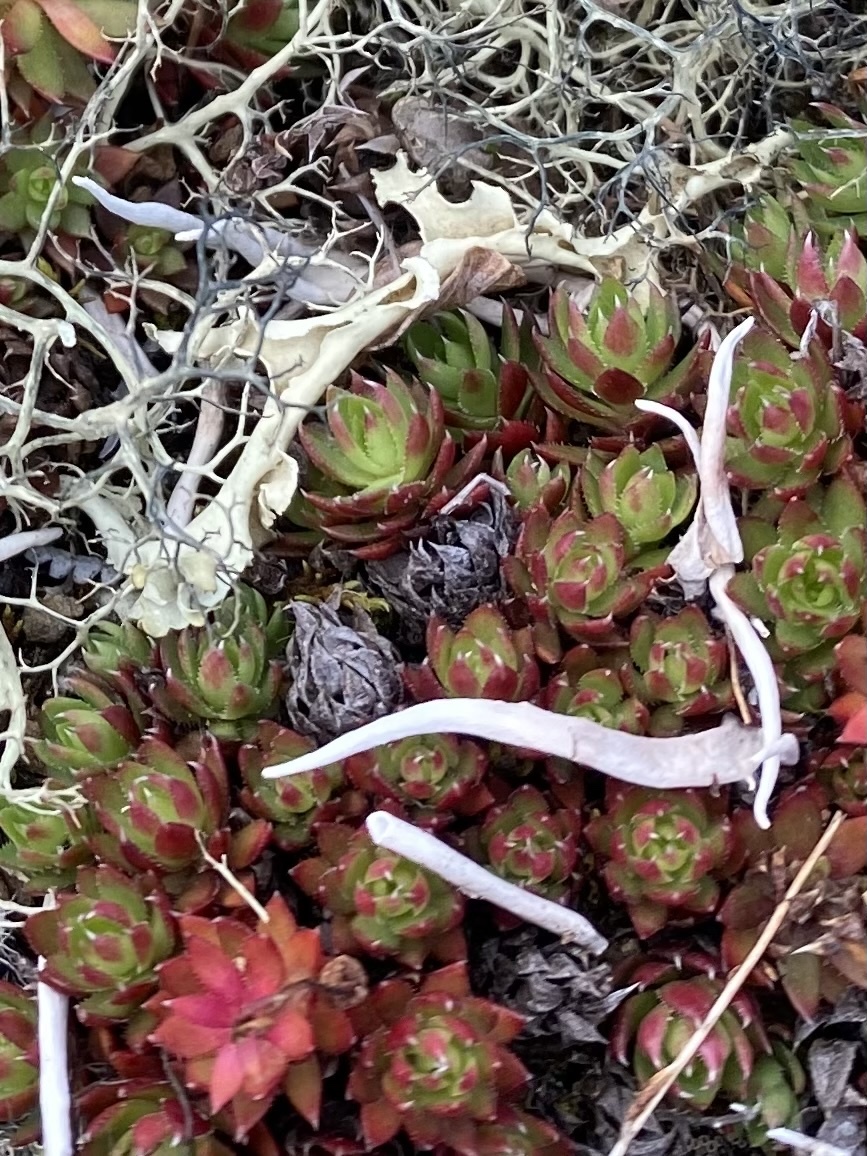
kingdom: Fungi
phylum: Ascomycota
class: Lecanoromycetes
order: Pertusariales
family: Icmadophilaceae
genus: Thamnolia
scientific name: Thamnolia vermicularis
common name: Whiteworm lichen
